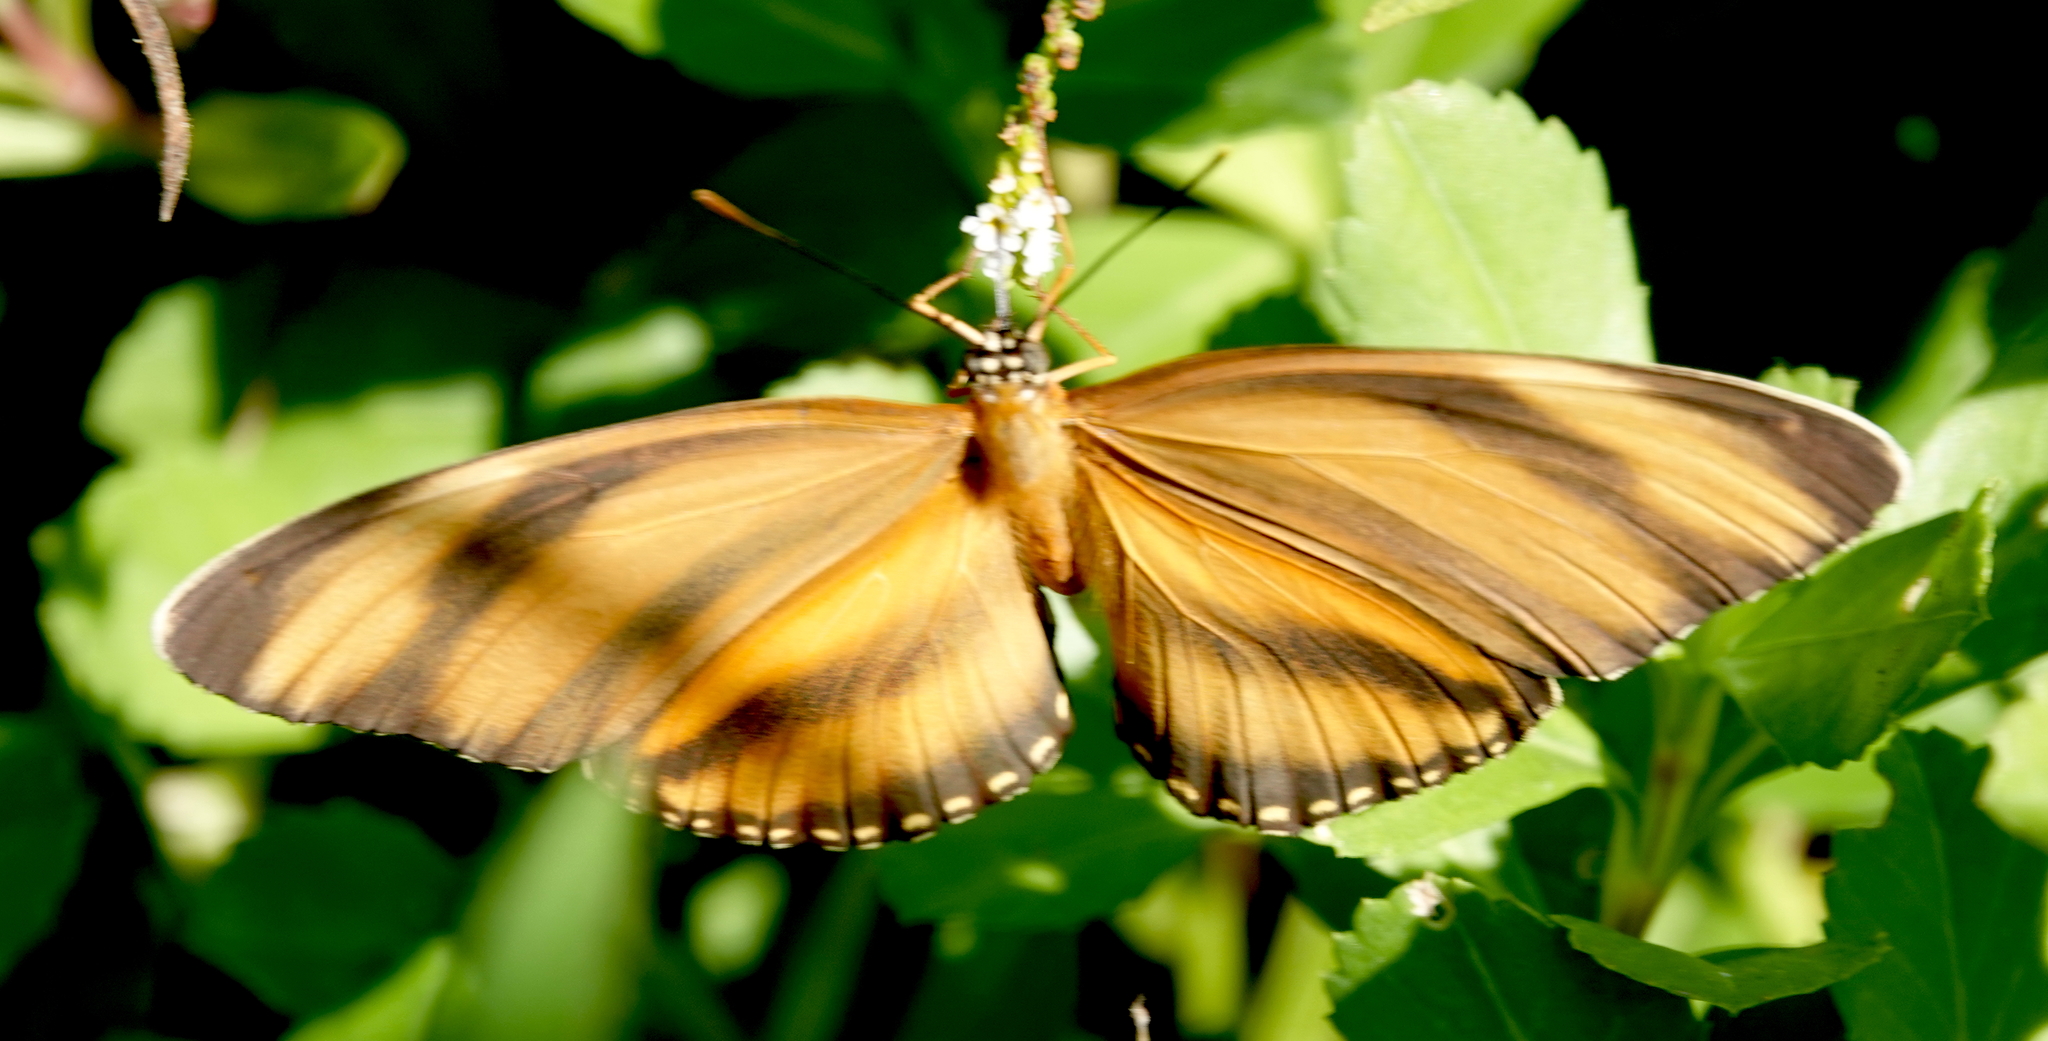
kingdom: Animalia
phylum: Arthropoda
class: Insecta
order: Lepidoptera
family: Nymphalidae
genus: Dryadula
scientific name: Dryadula phaetusa
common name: Banded orange heliconian
